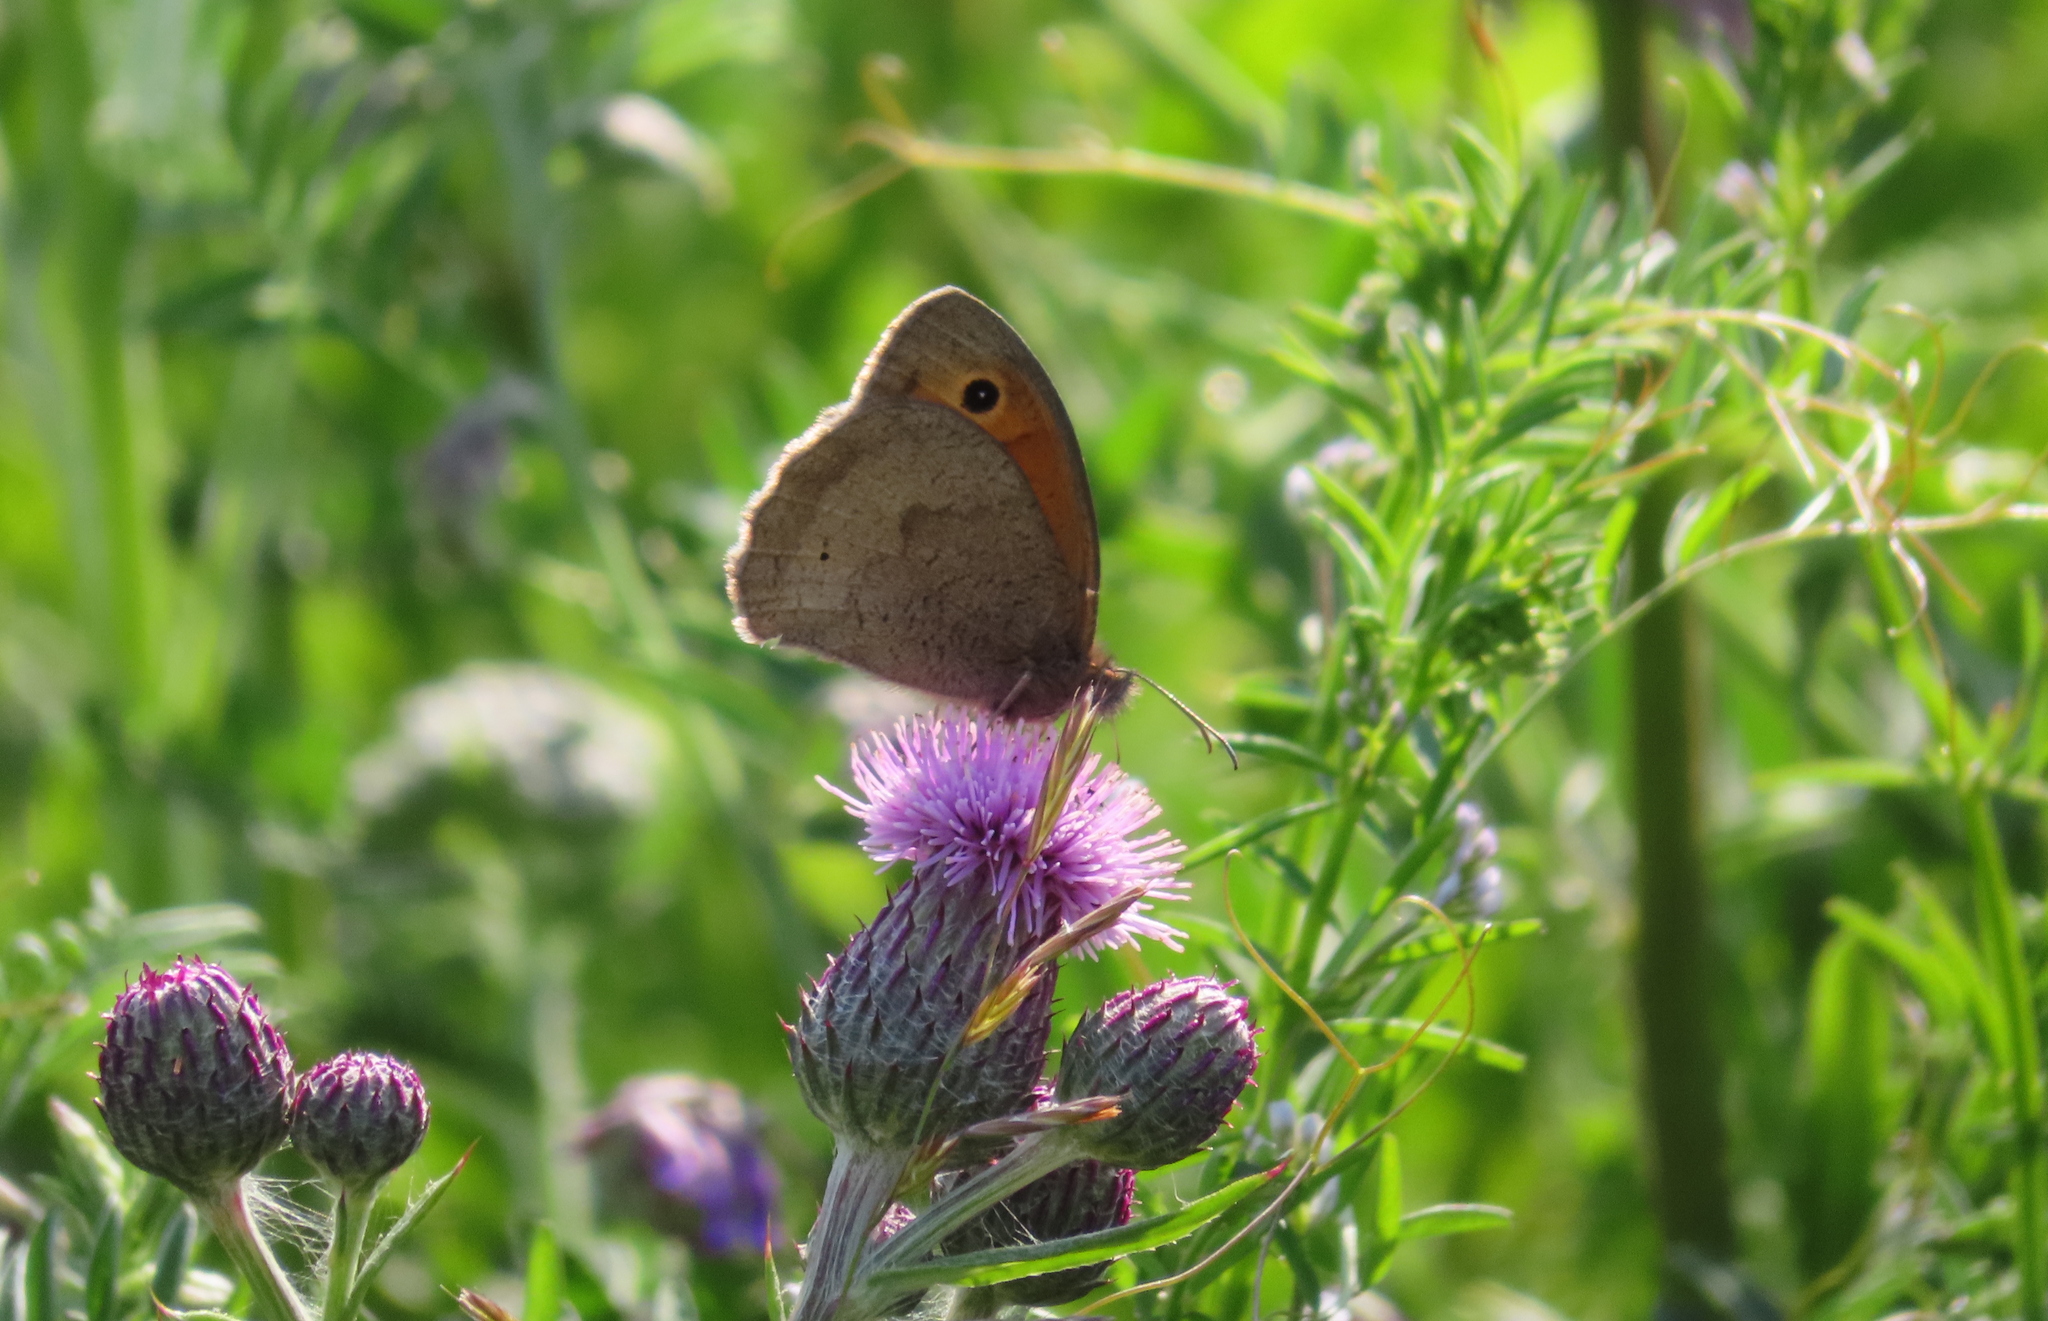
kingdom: Animalia
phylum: Arthropoda
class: Insecta
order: Lepidoptera
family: Nymphalidae
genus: Maniola
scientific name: Maniola jurtina
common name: Meadow brown
